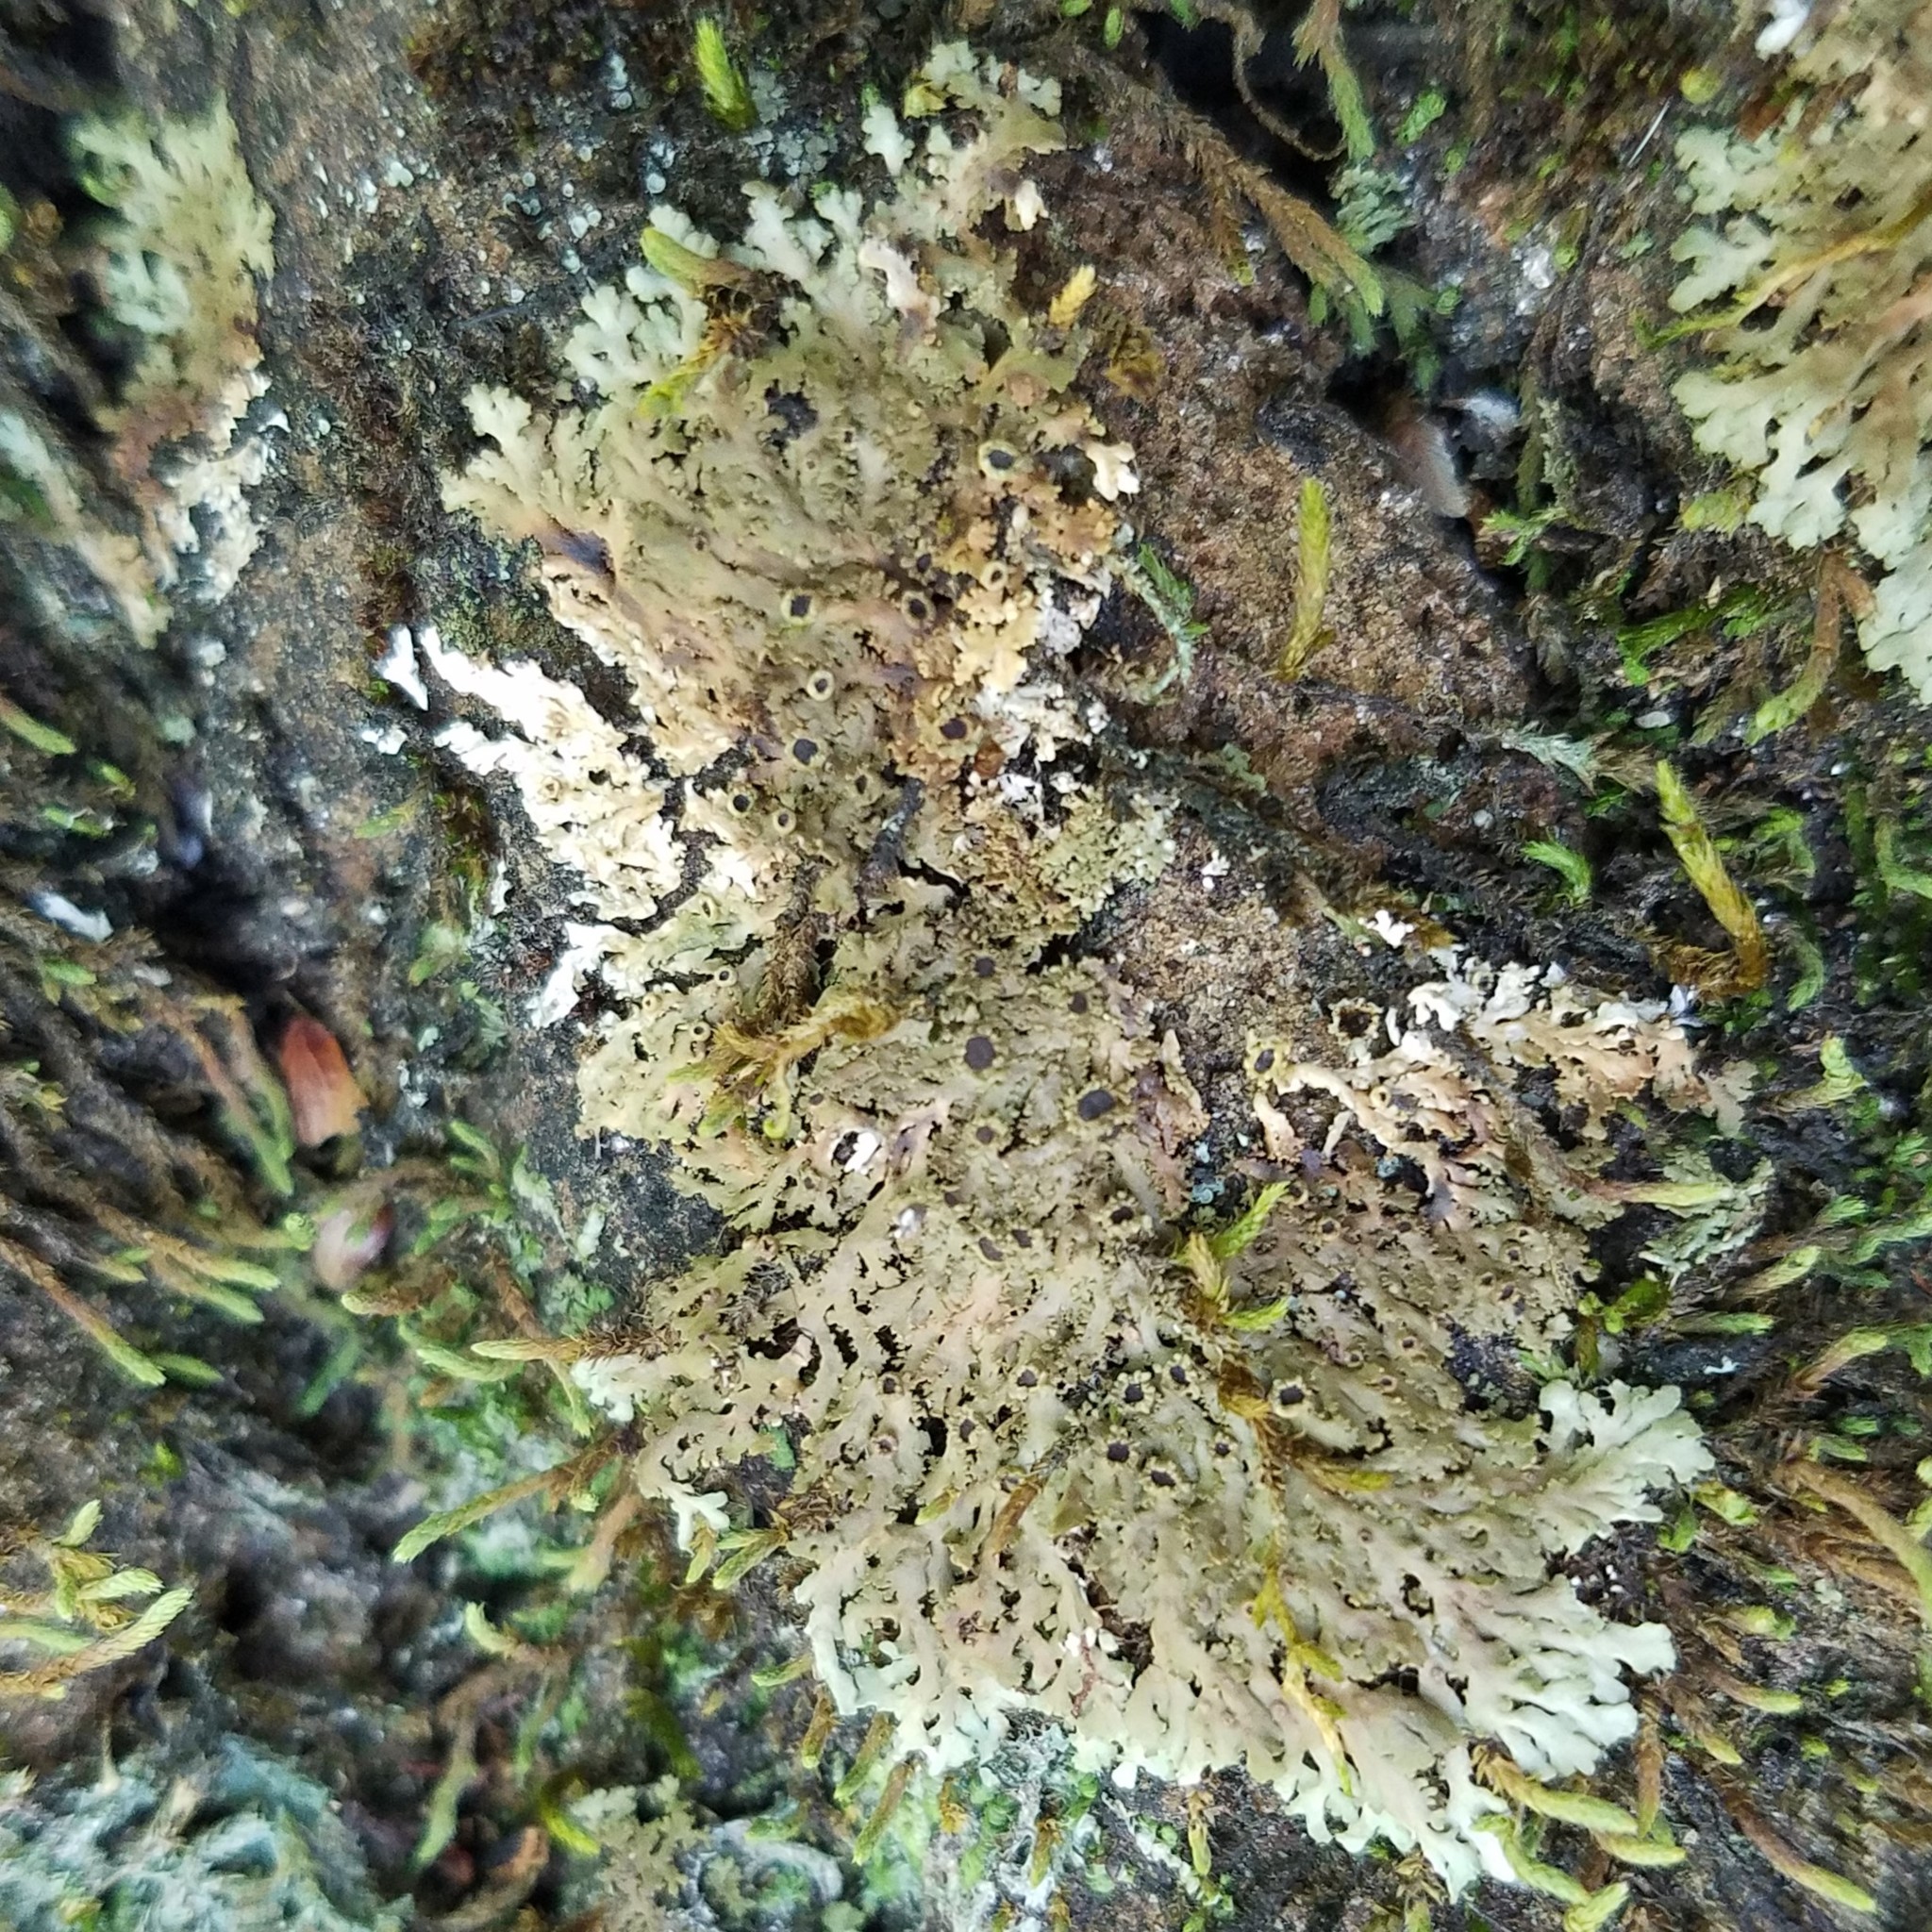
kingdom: Fungi
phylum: Ascomycota
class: Lecanoromycetes
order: Caliciales
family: Physciaceae
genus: Kurokawia
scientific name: Kurokawia palmulata
